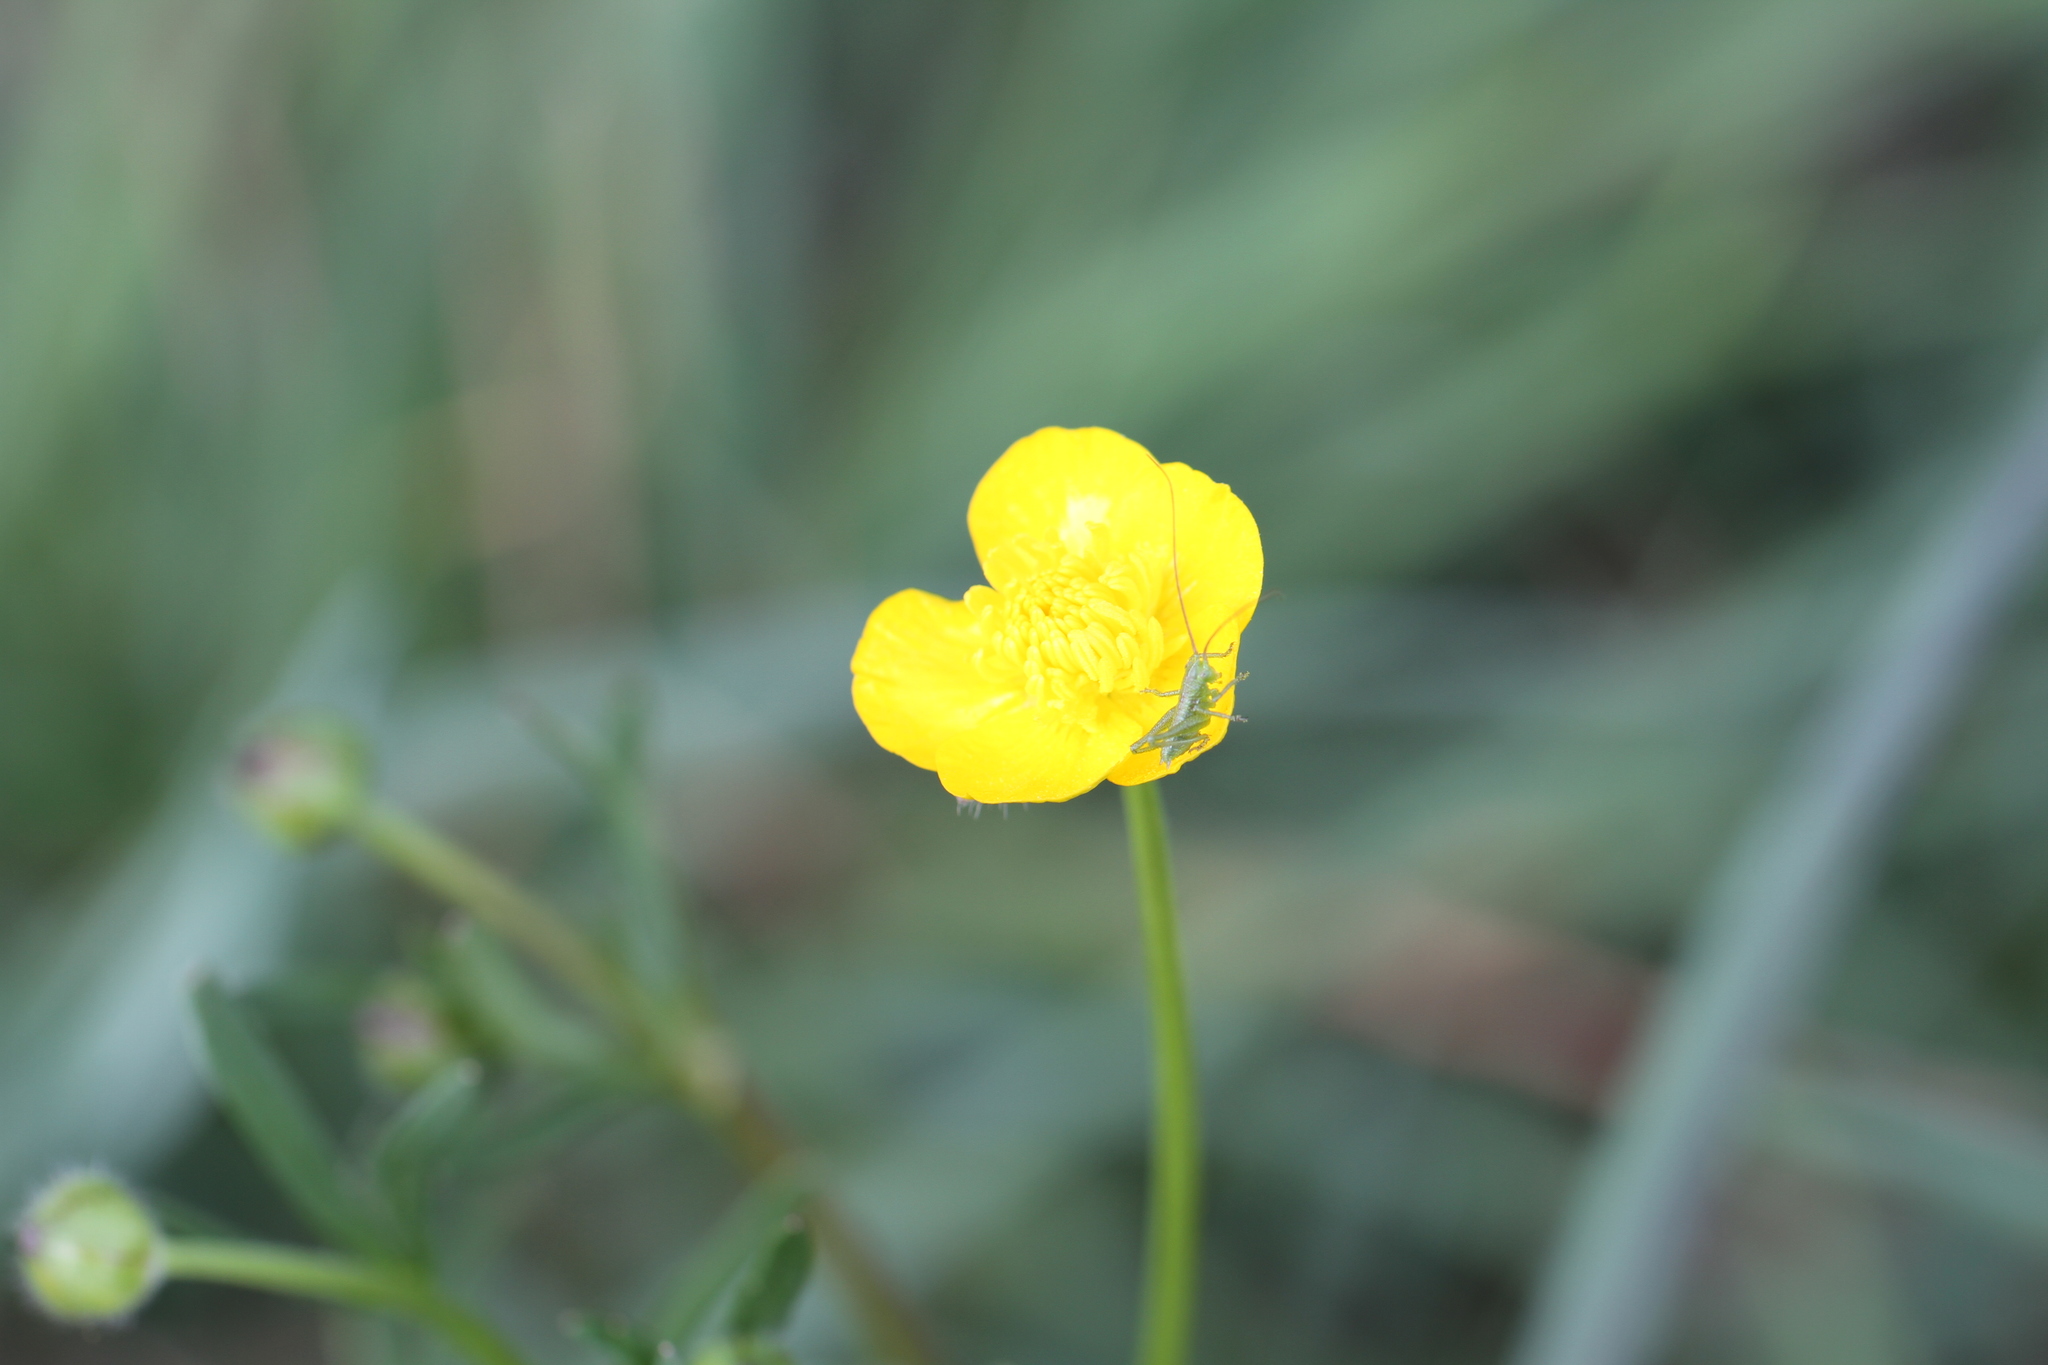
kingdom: Animalia
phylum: Arthropoda
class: Insecta
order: Orthoptera
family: Tettigoniidae
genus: Tettigonia
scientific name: Tettigonia viridissima
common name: Great green bush-cricket
